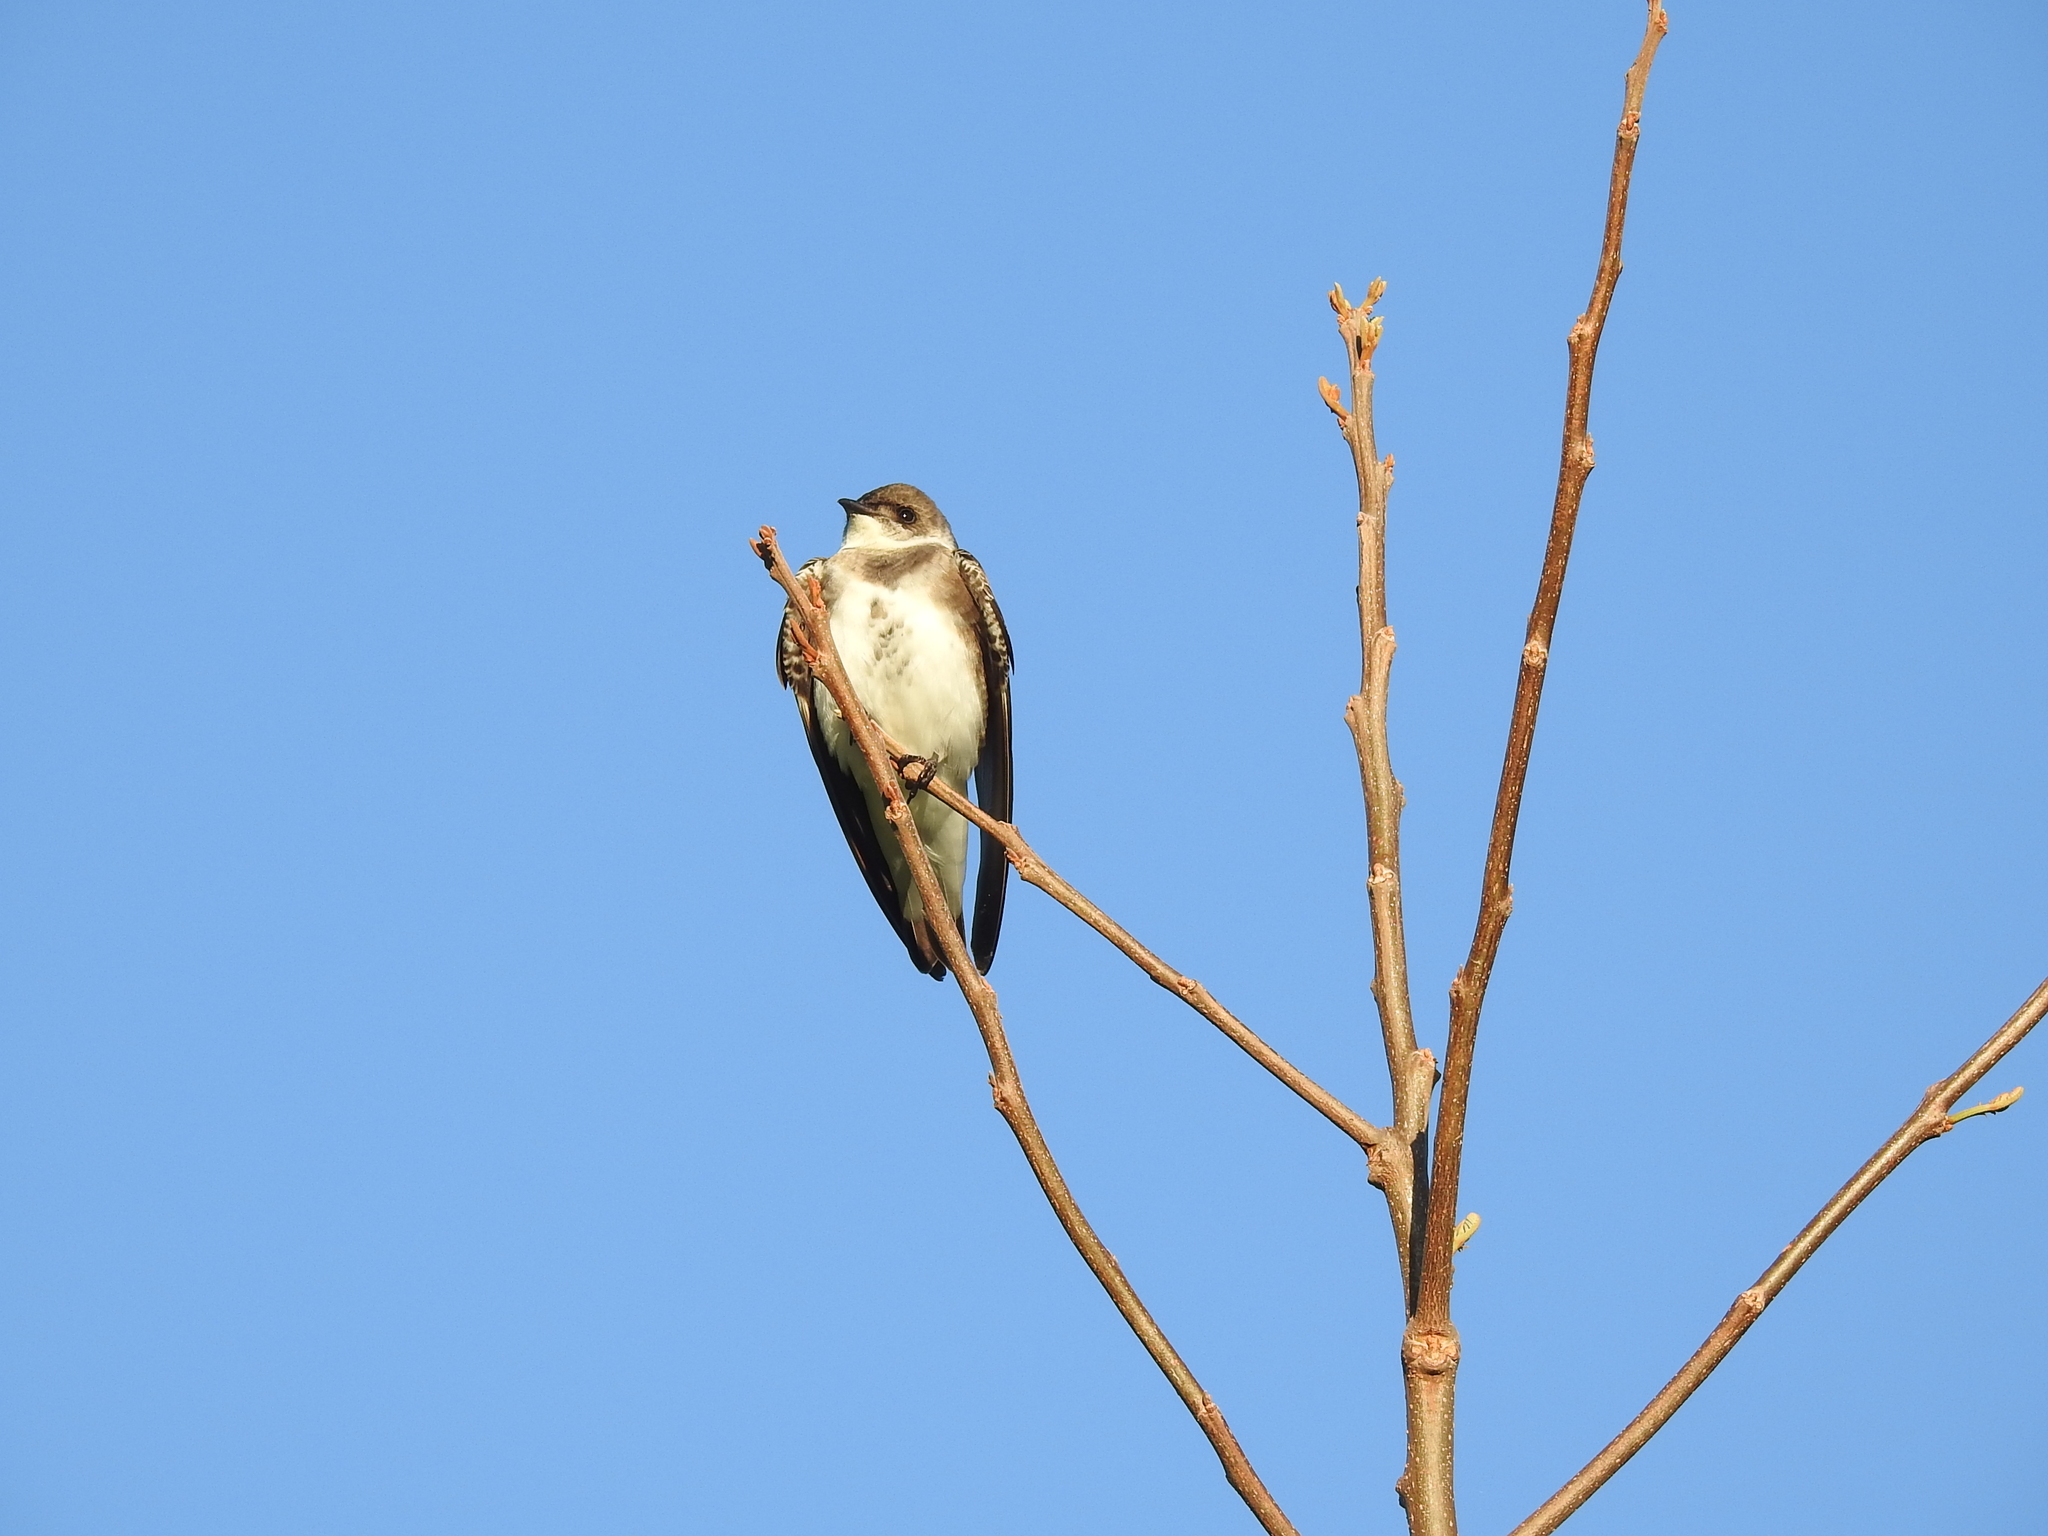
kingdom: Animalia
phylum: Chordata
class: Aves
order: Passeriformes
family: Hirundinidae
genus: Progne
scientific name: Progne tapera
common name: Brown-chested martin
